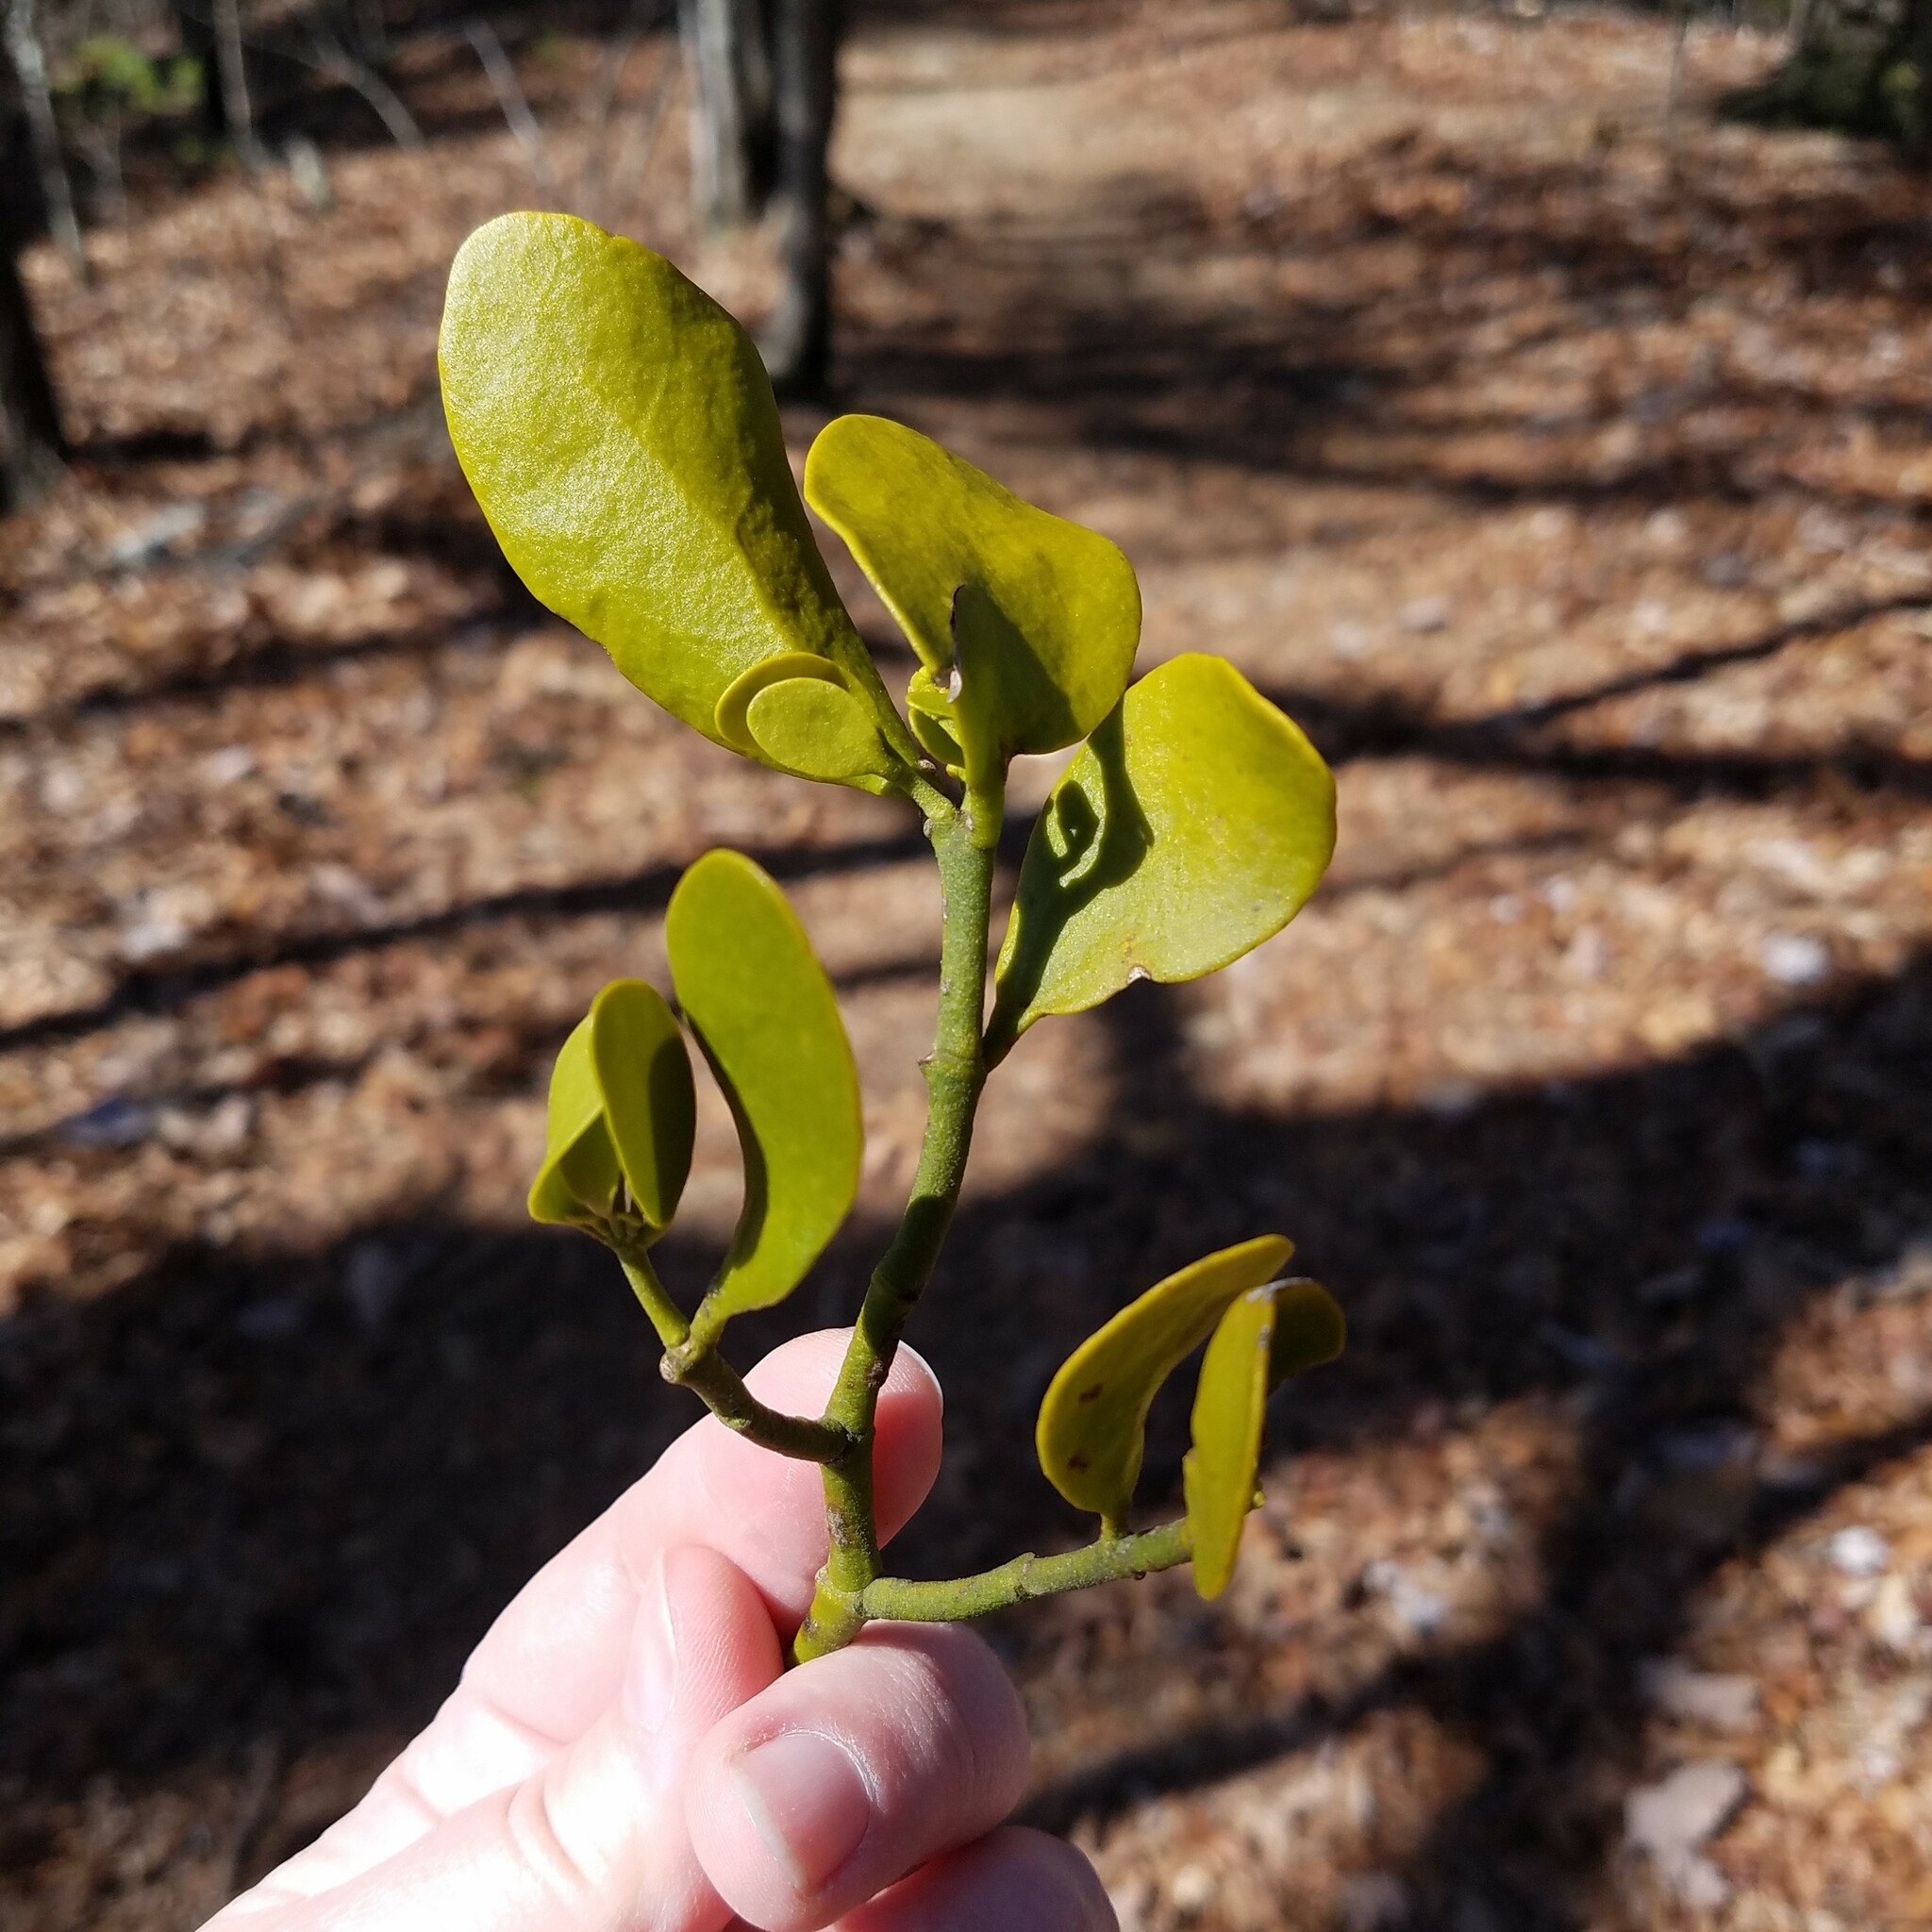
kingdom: Plantae
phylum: Tracheophyta
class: Magnoliopsida
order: Santalales
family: Viscaceae
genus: Phoradendron
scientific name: Phoradendron leucarpum
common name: Pacific mistletoe
